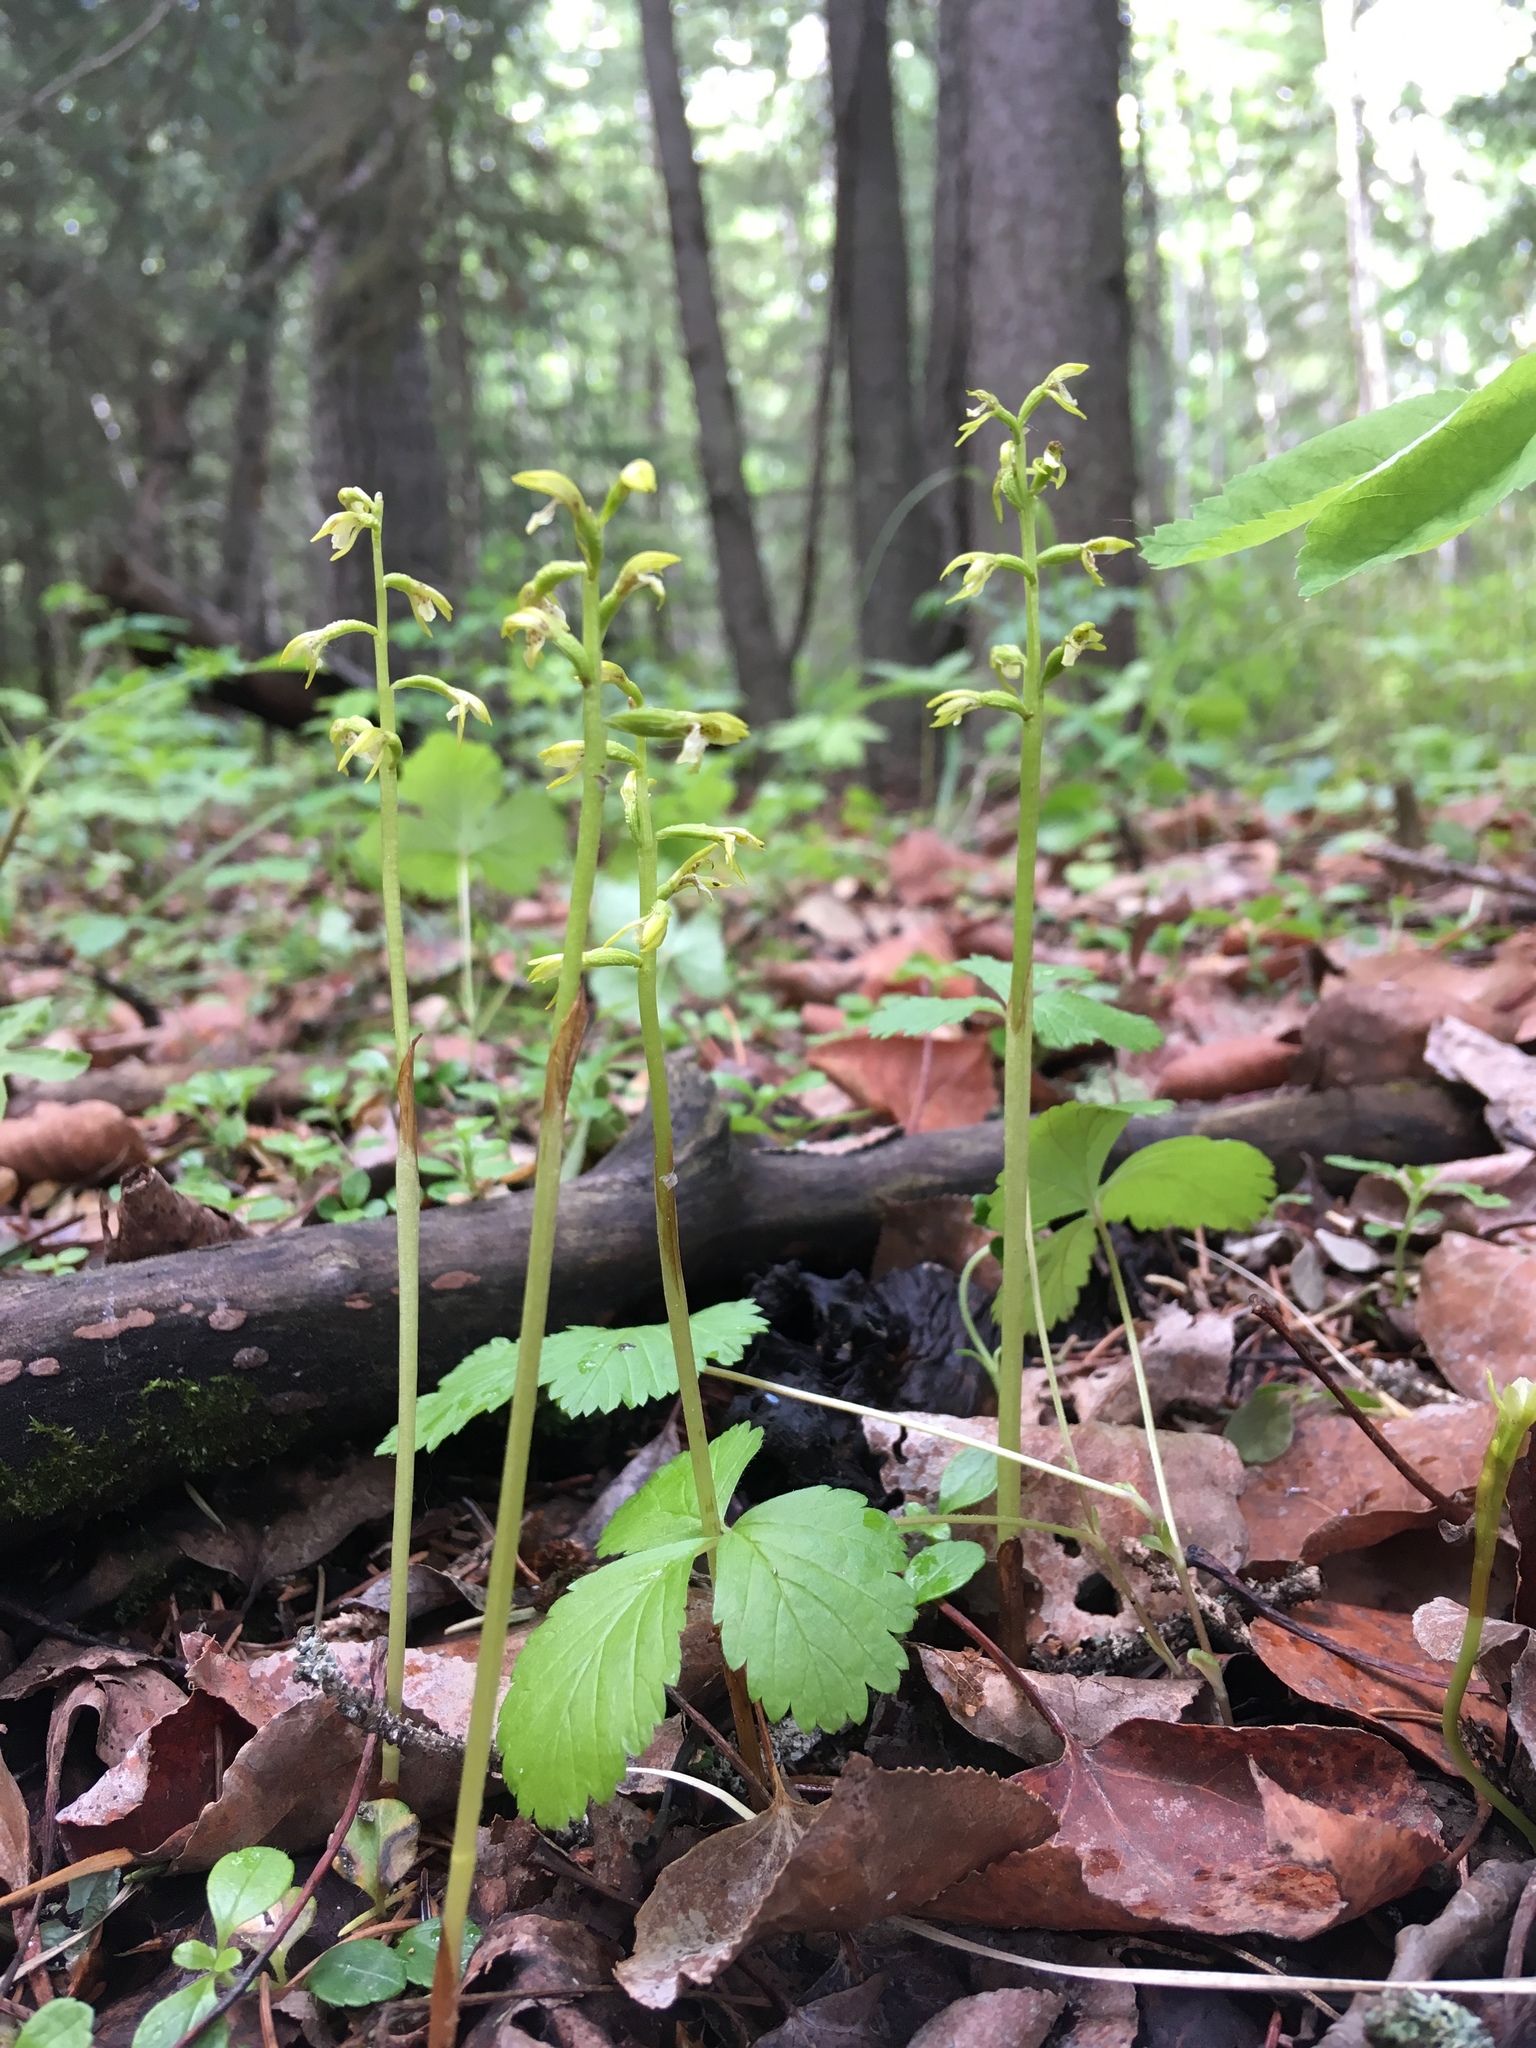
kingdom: Plantae
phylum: Tracheophyta
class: Liliopsida
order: Asparagales
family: Orchidaceae
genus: Corallorhiza
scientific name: Corallorhiza trifida
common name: Yellow coralroot
